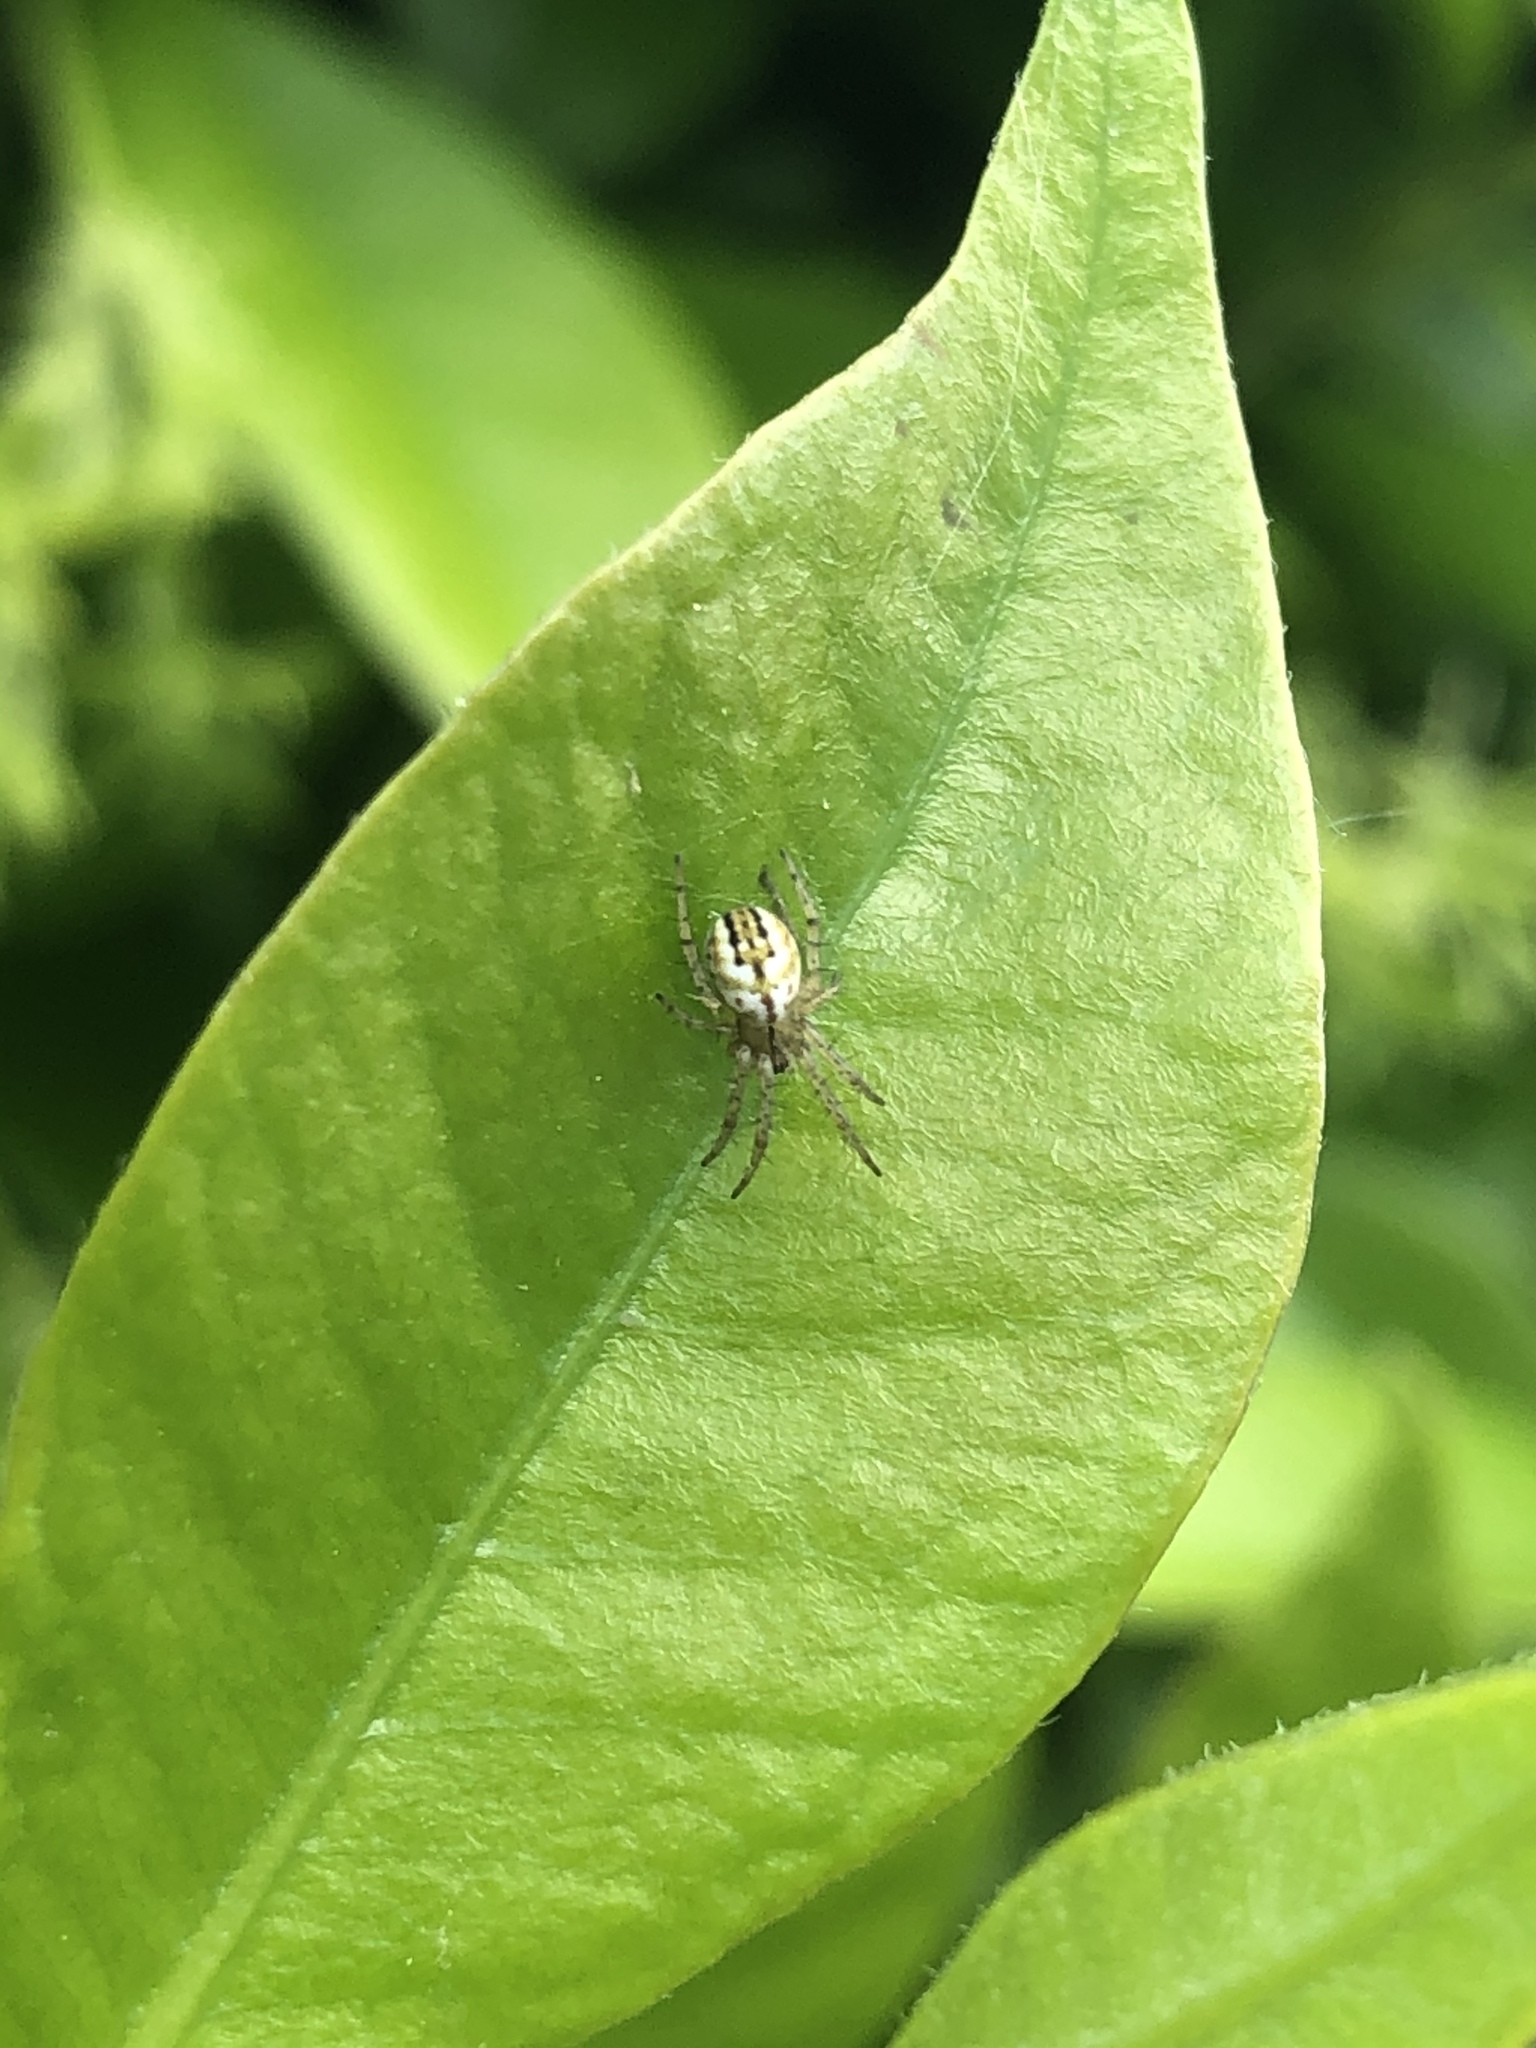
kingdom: Animalia
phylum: Arthropoda
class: Arachnida
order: Araneae
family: Araneidae
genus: Mangora
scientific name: Mangora acalypha
